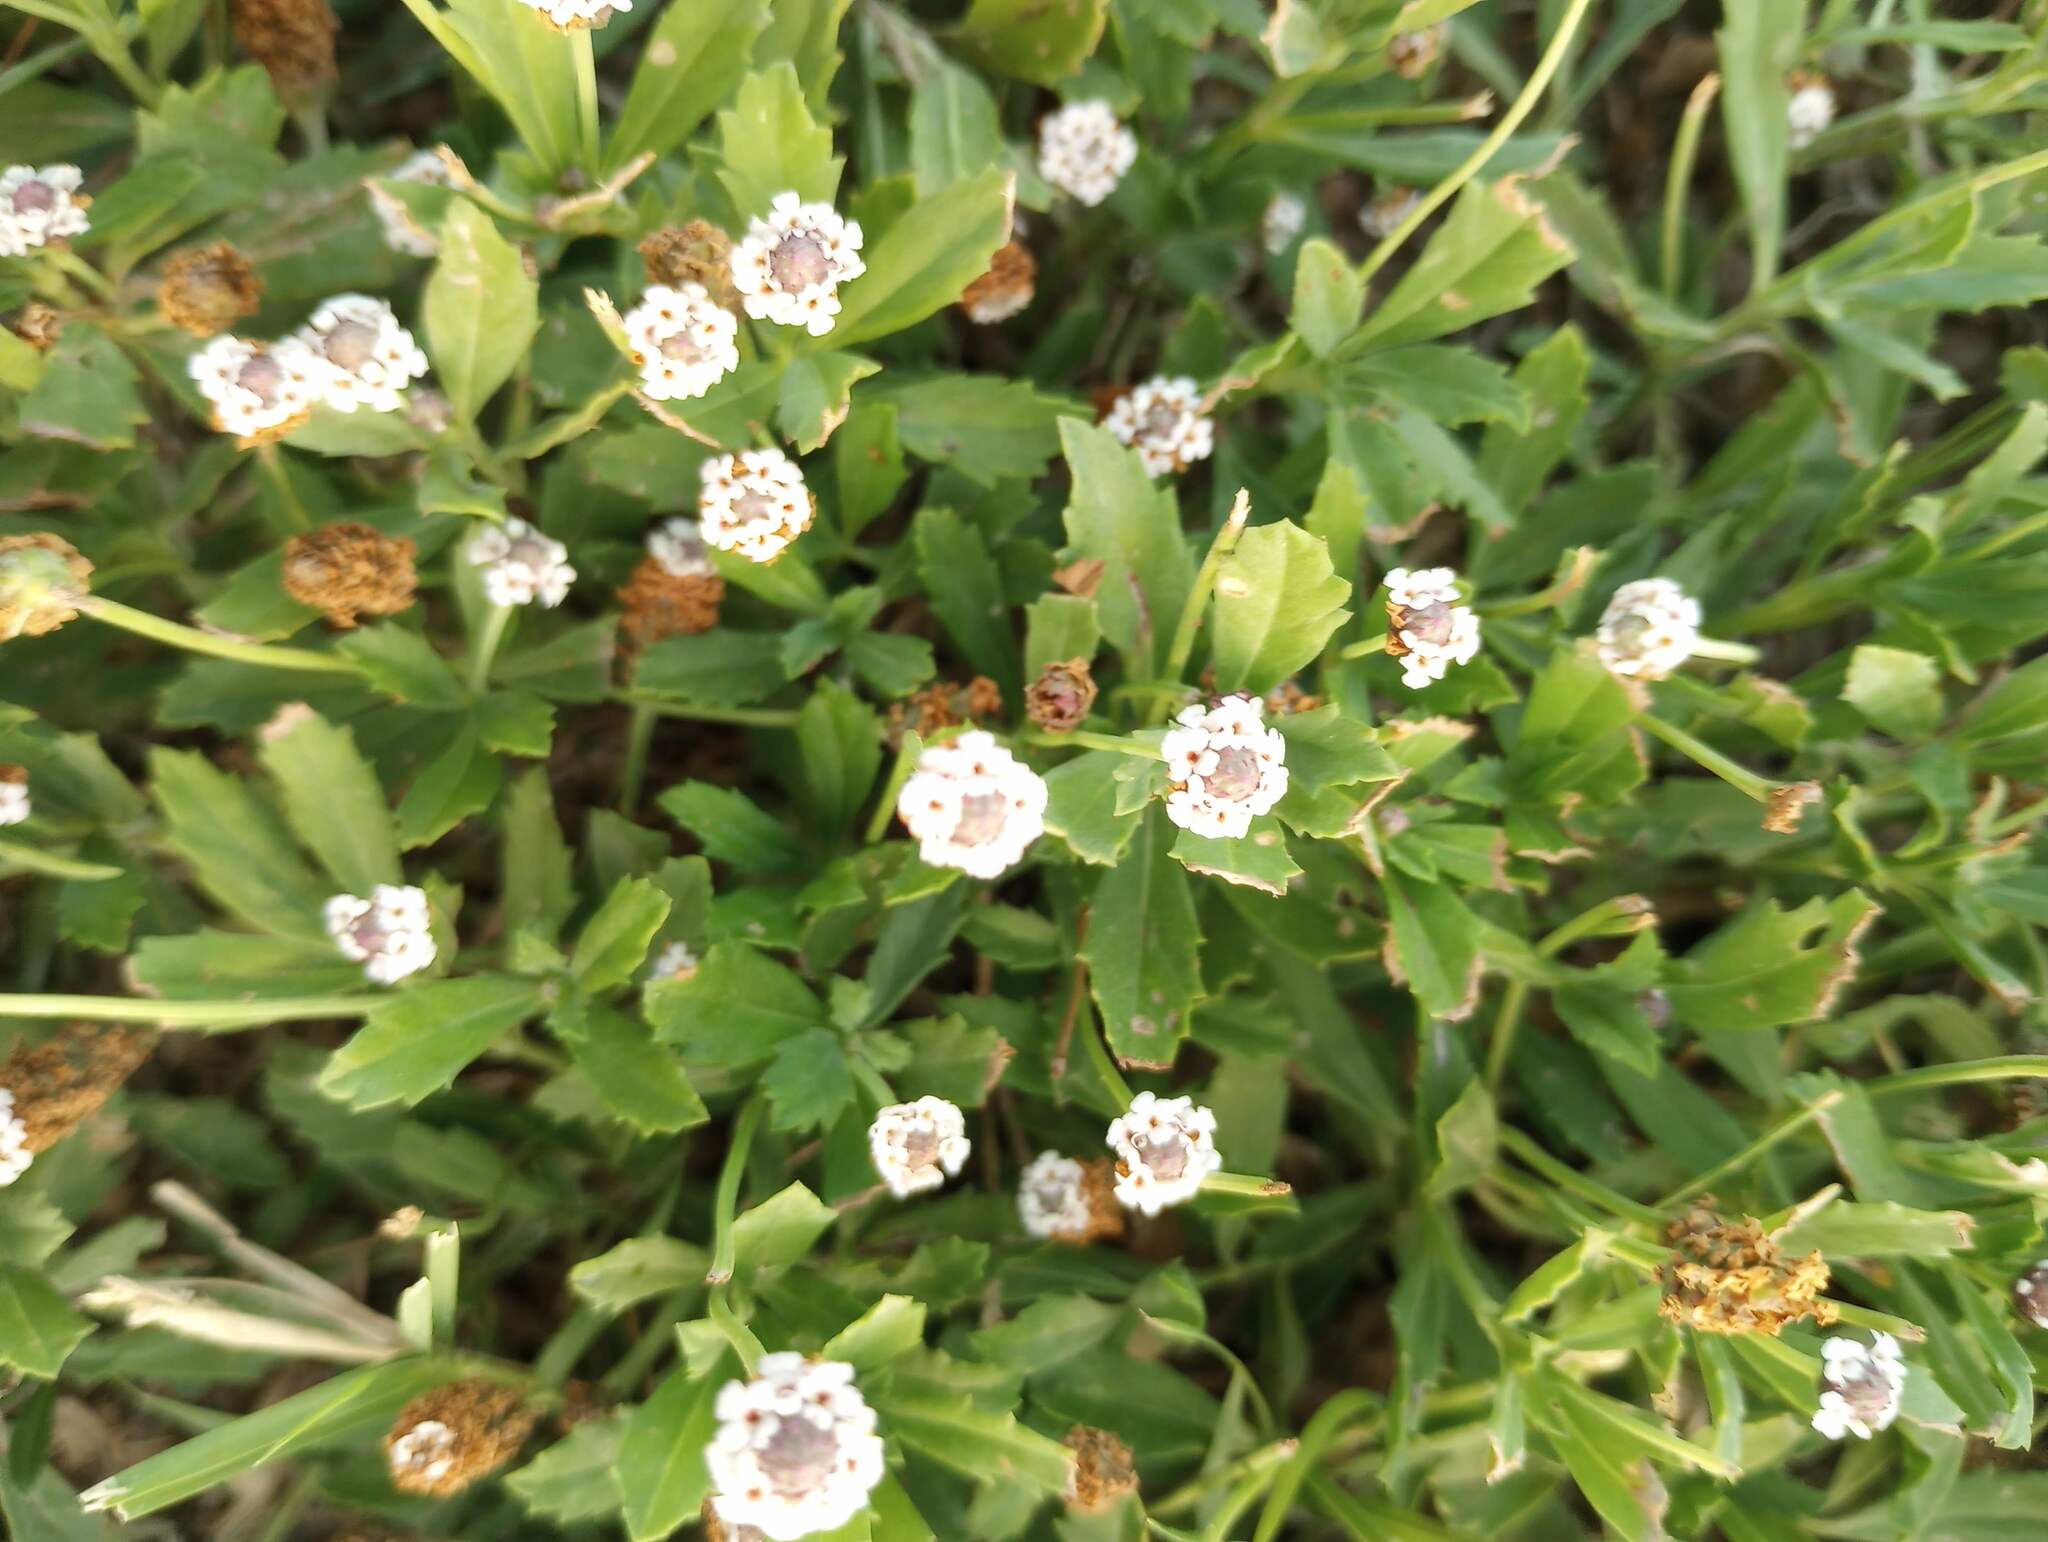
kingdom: Plantae
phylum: Tracheophyta
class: Magnoliopsida
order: Lamiales
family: Verbenaceae
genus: Phyla
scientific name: Phyla nodiflora
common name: Frogfruit
